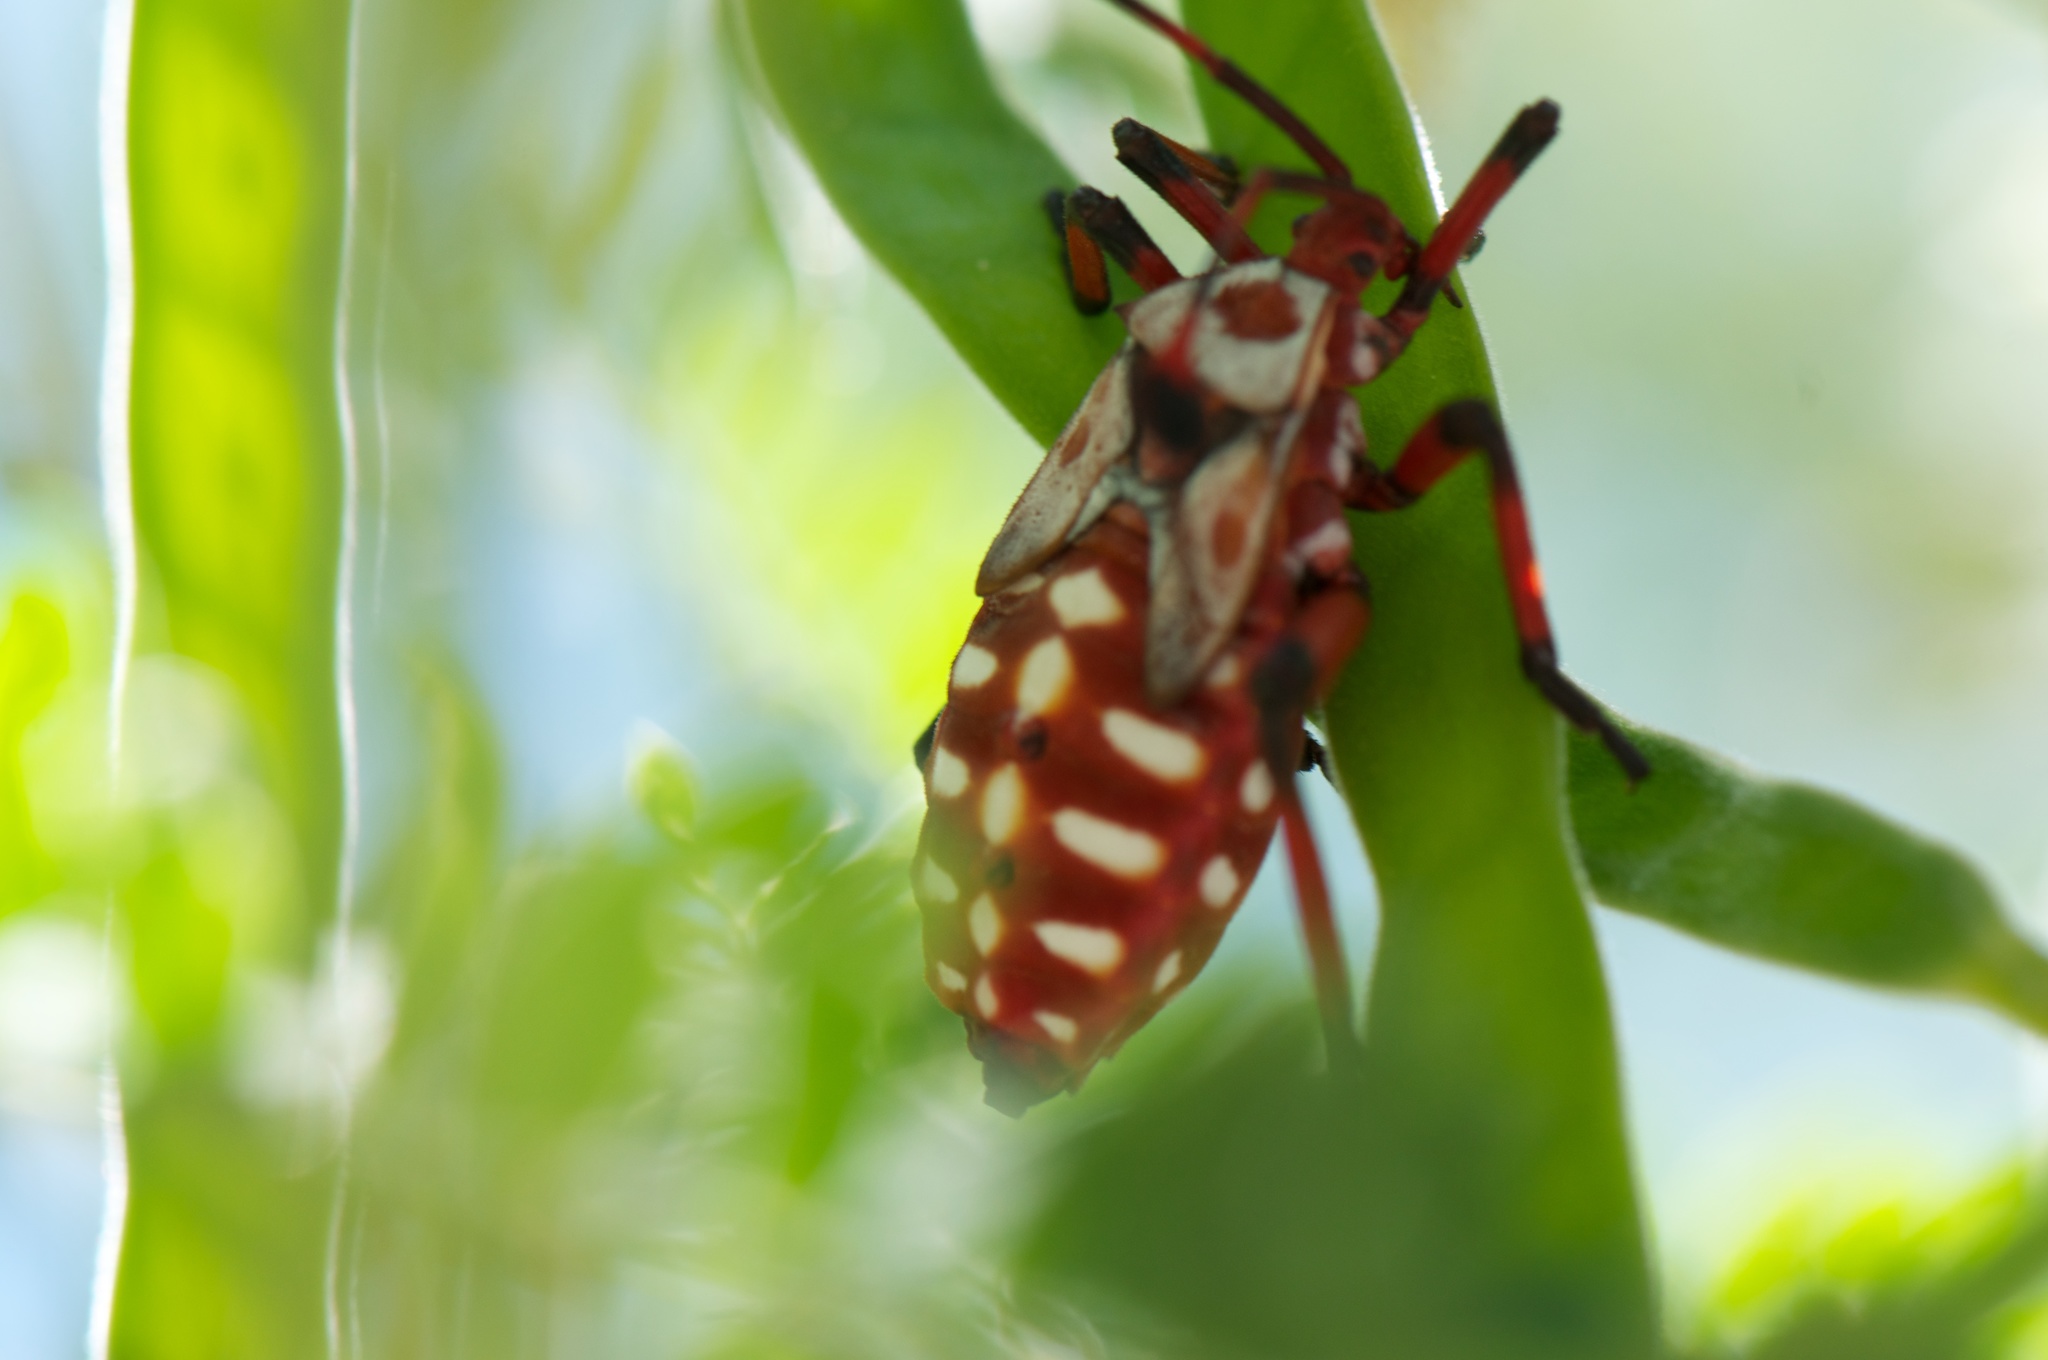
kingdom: Animalia
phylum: Arthropoda
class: Insecta
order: Hemiptera
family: Coreidae
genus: Thasus
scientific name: Thasus neocalifornicus
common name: Giant mesquite bug
